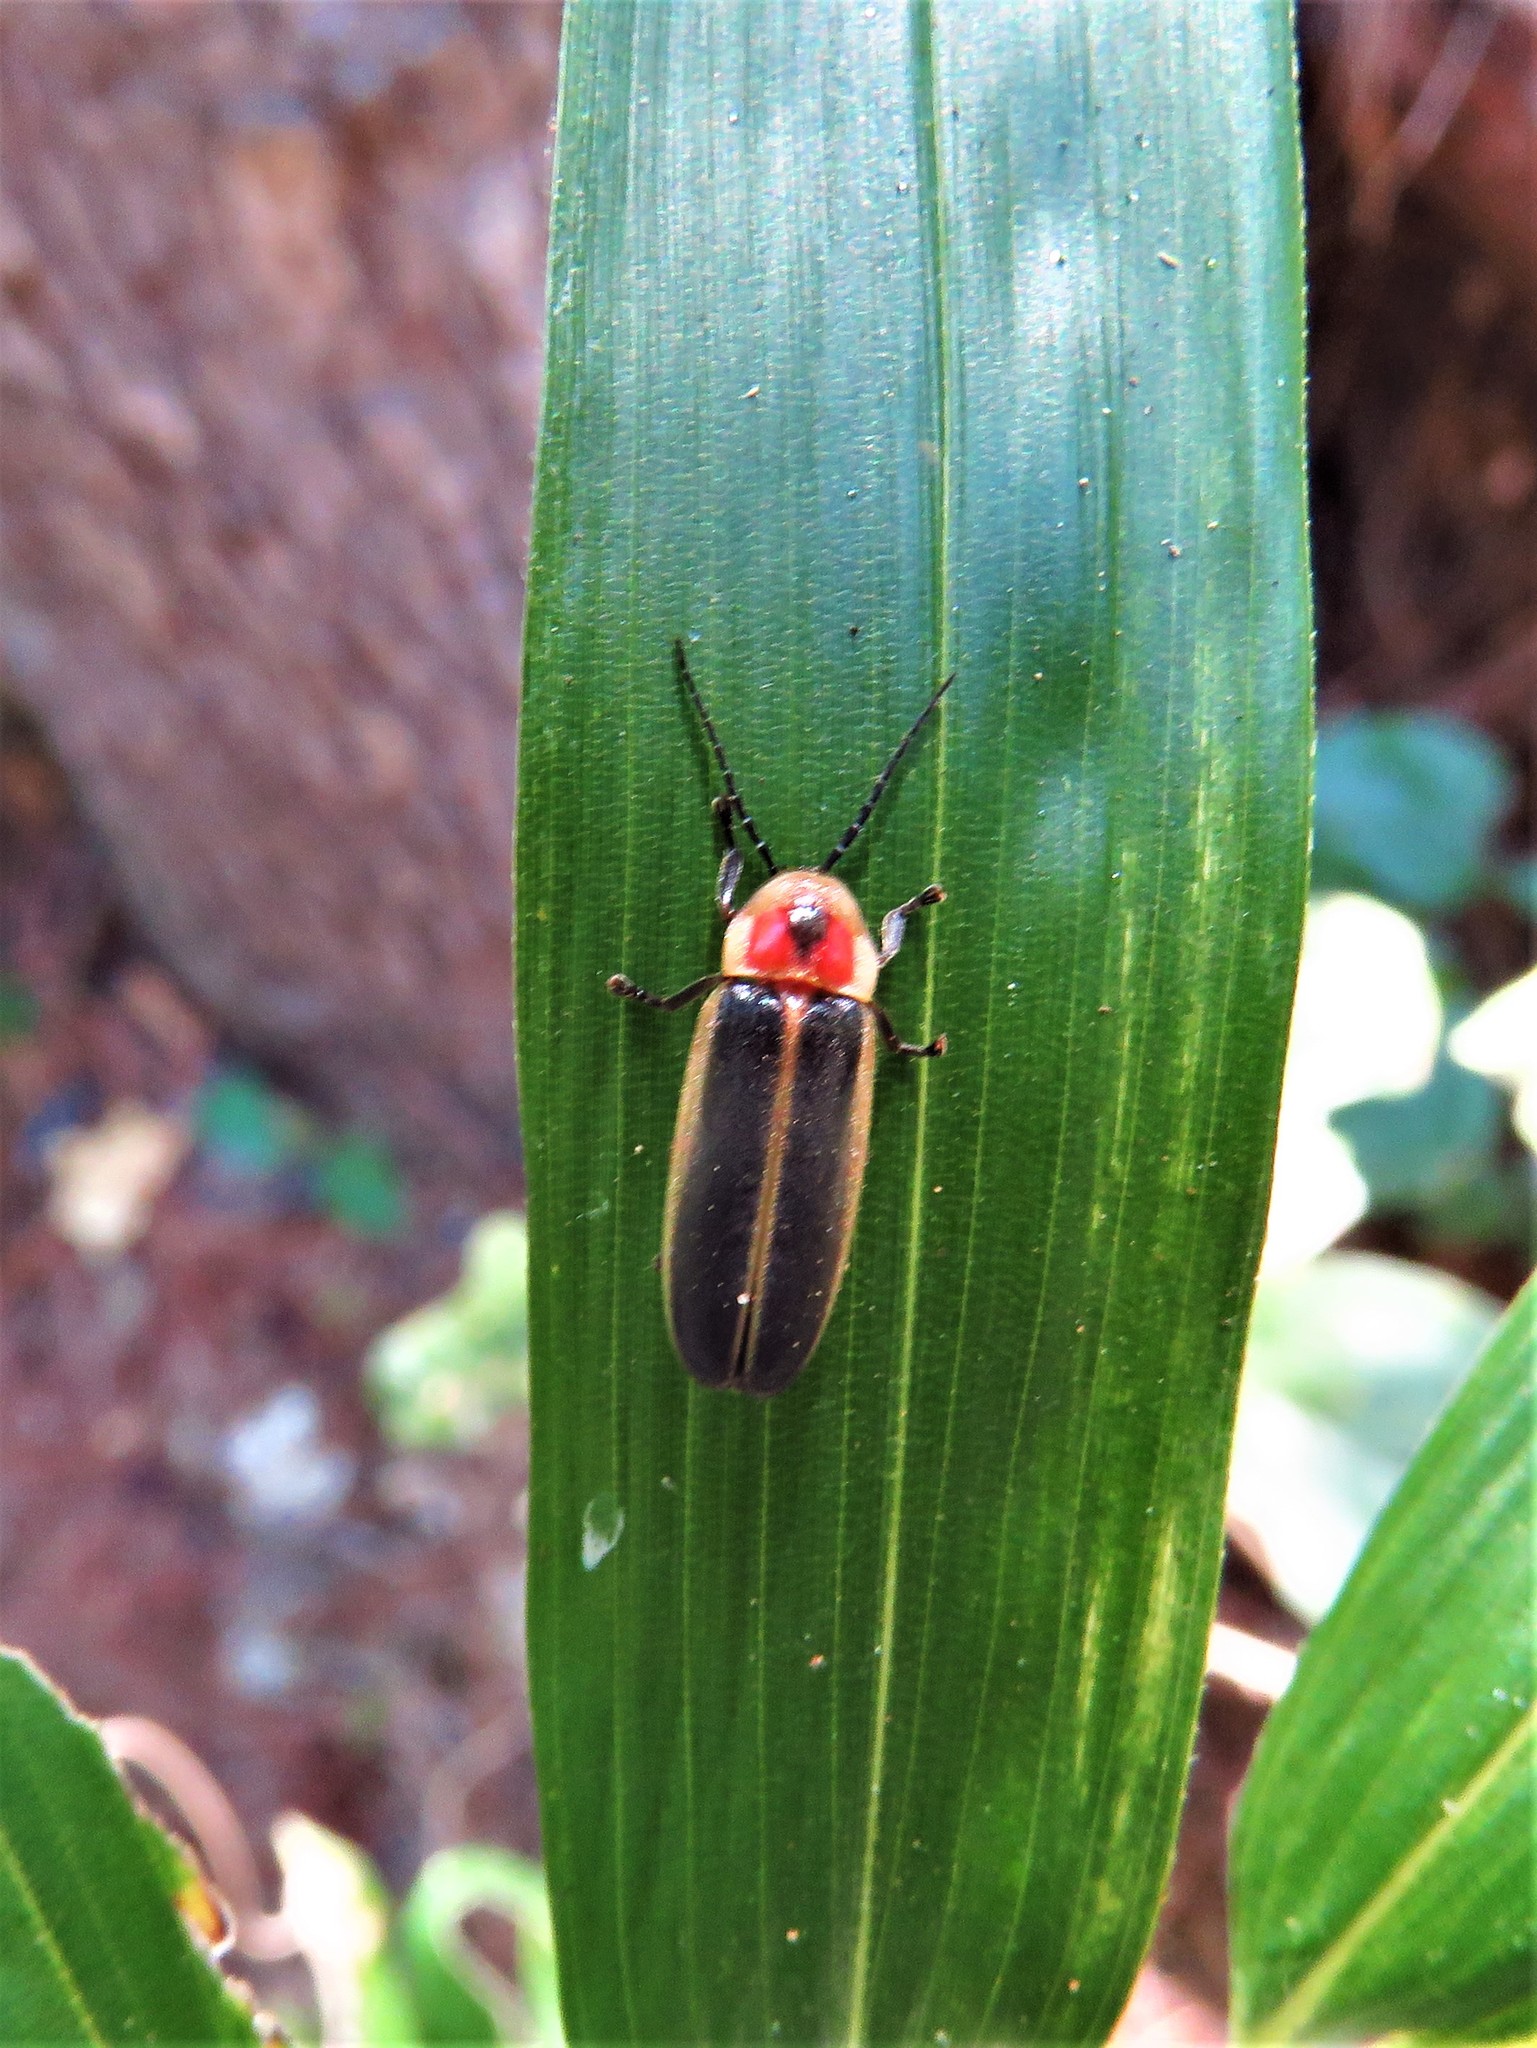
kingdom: Animalia
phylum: Arthropoda
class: Insecta
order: Coleoptera
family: Lampyridae
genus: Photinus
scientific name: Photinus pyralis
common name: Big dipper firefly
